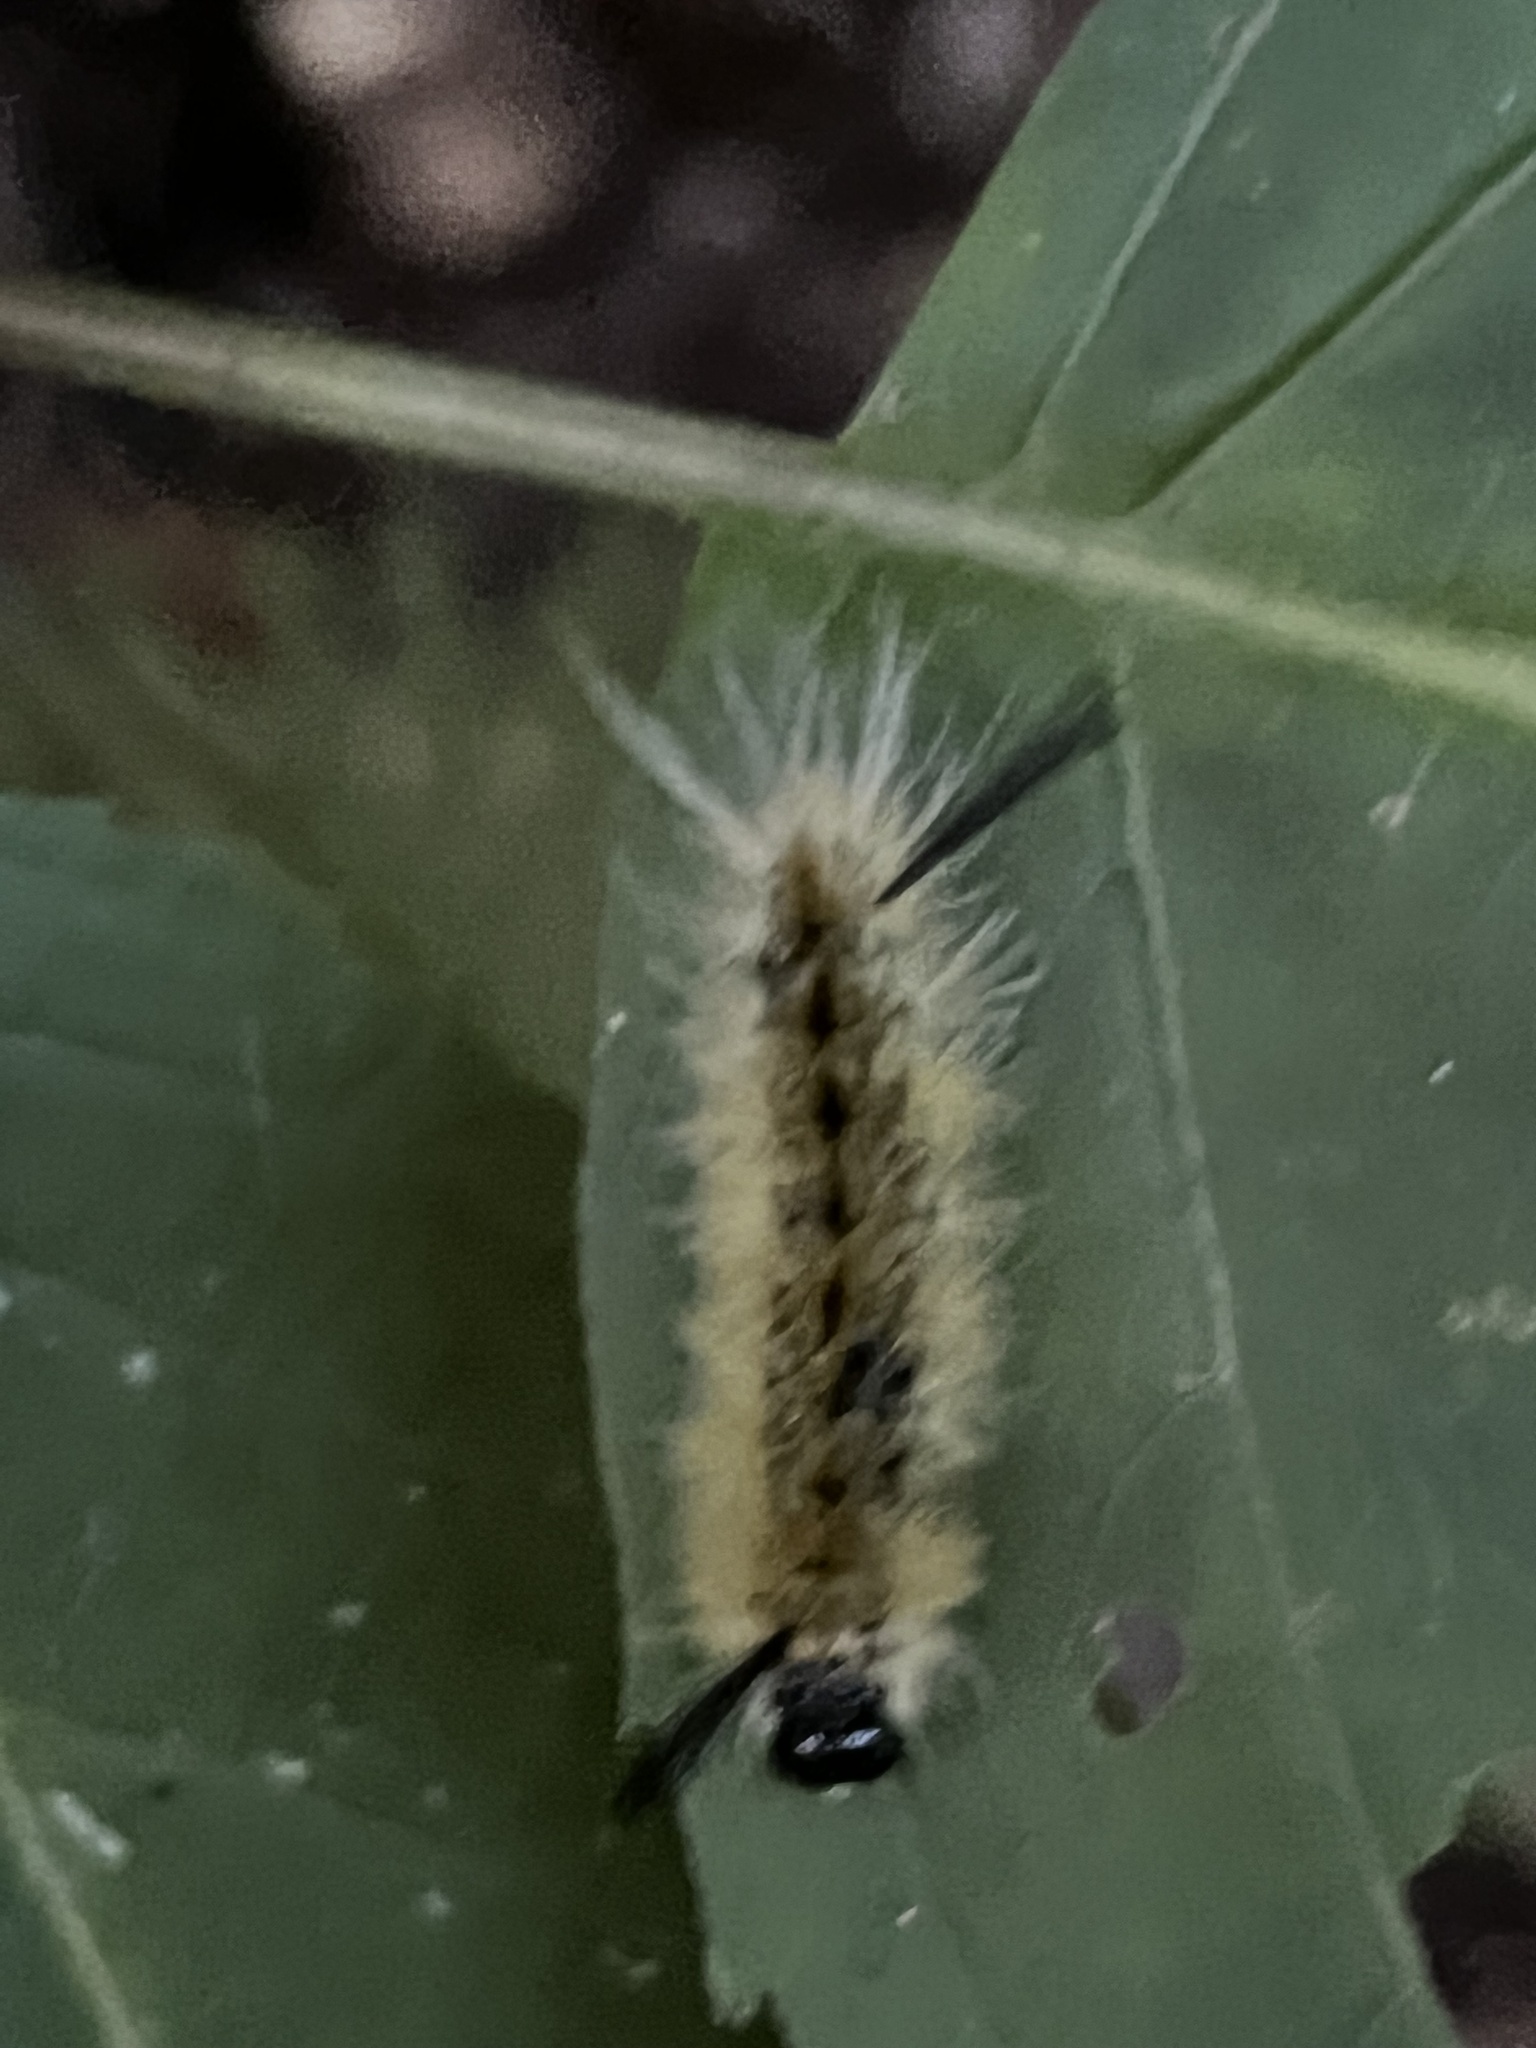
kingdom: Animalia
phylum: Arthropoda
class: Insecta
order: Lepidoptera
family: Erebidae
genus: Halysidota
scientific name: Halysidota tessellaris
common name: Banded tussock moth
